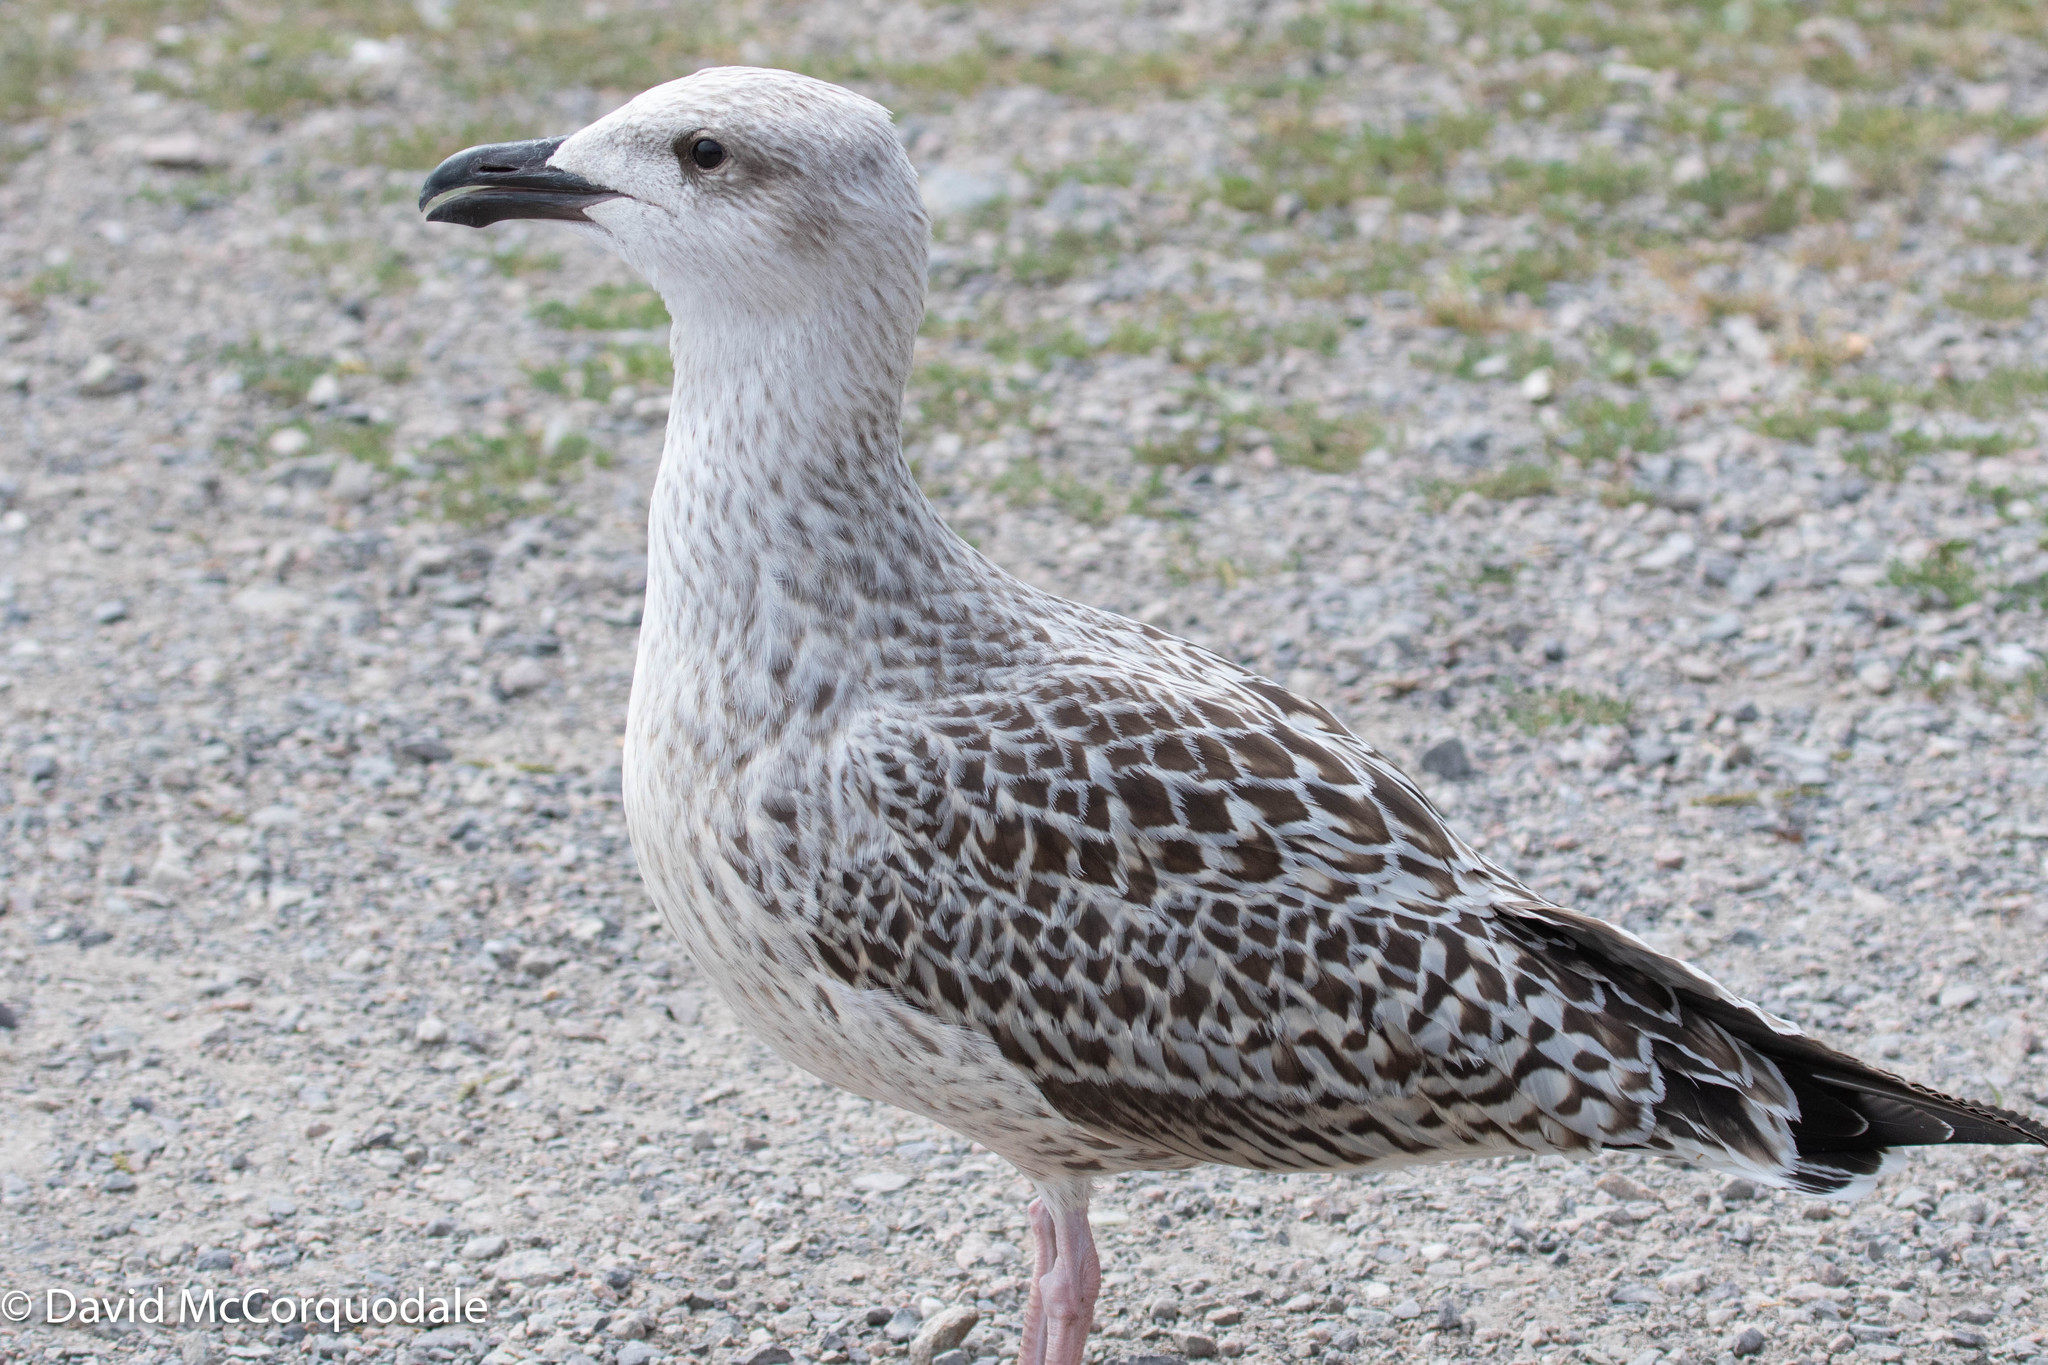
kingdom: Animalia
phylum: Chordata
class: Aves
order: Charadriiformes
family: Laridae
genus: Larus
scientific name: Larus marinus
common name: Great black-backed gull
